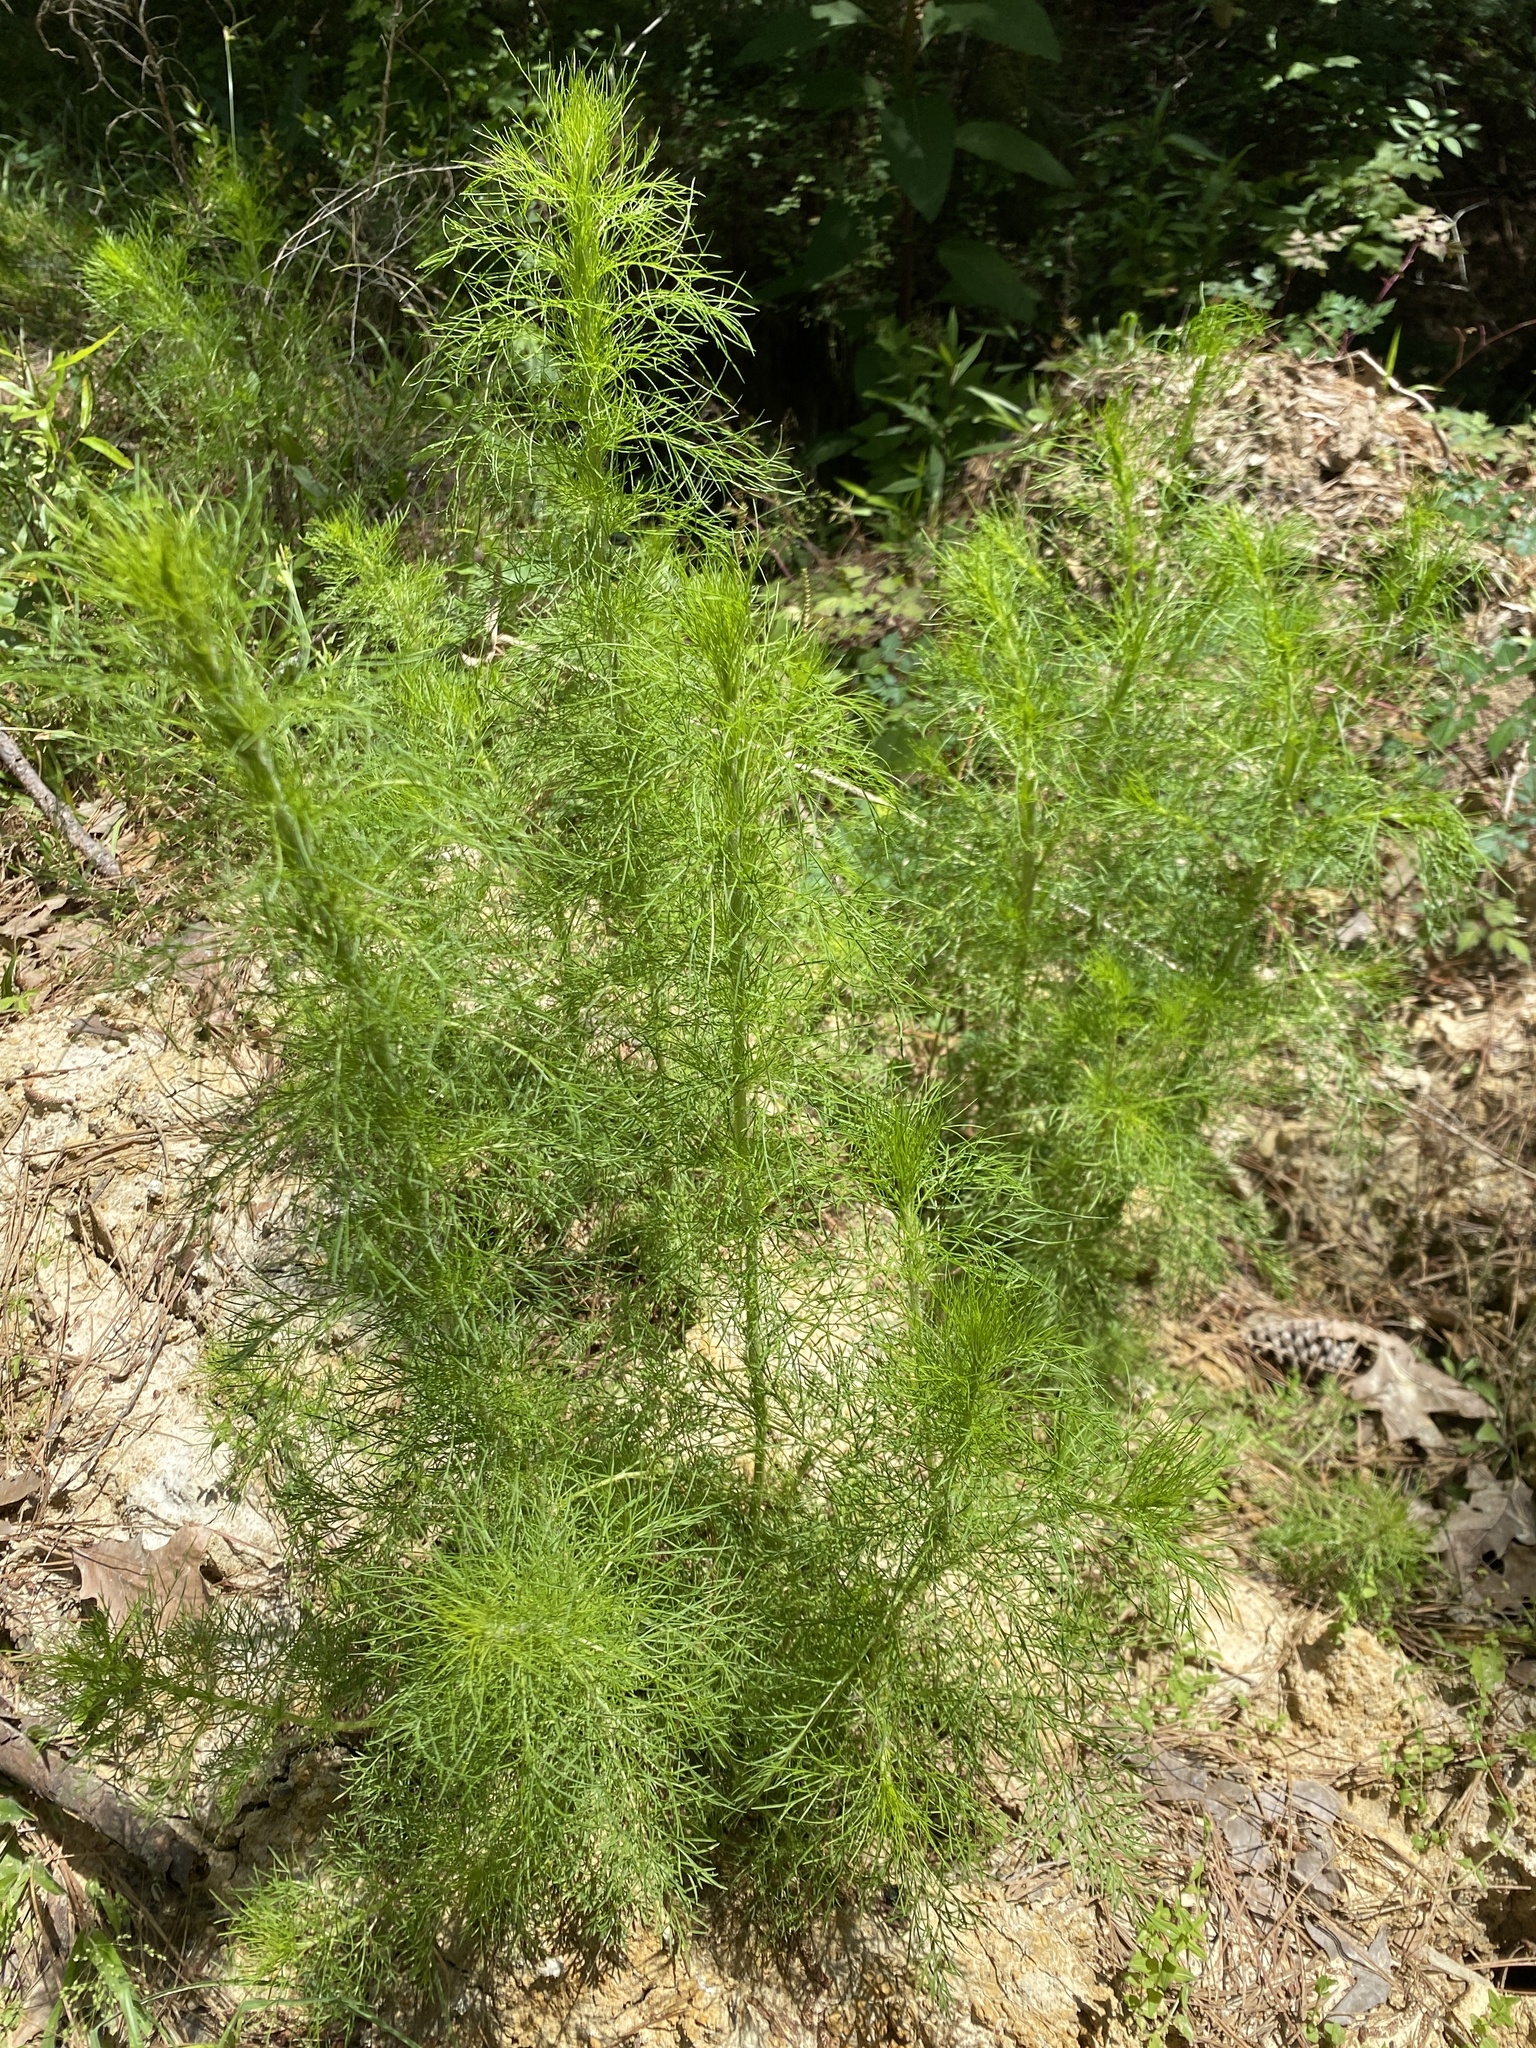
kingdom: Plantae
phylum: Tracheophyta
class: Magnoliopsida
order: Asterales
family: Asteraceae
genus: Eupatorium
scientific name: Eupatorium capillifolium
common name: Dog-fennel
